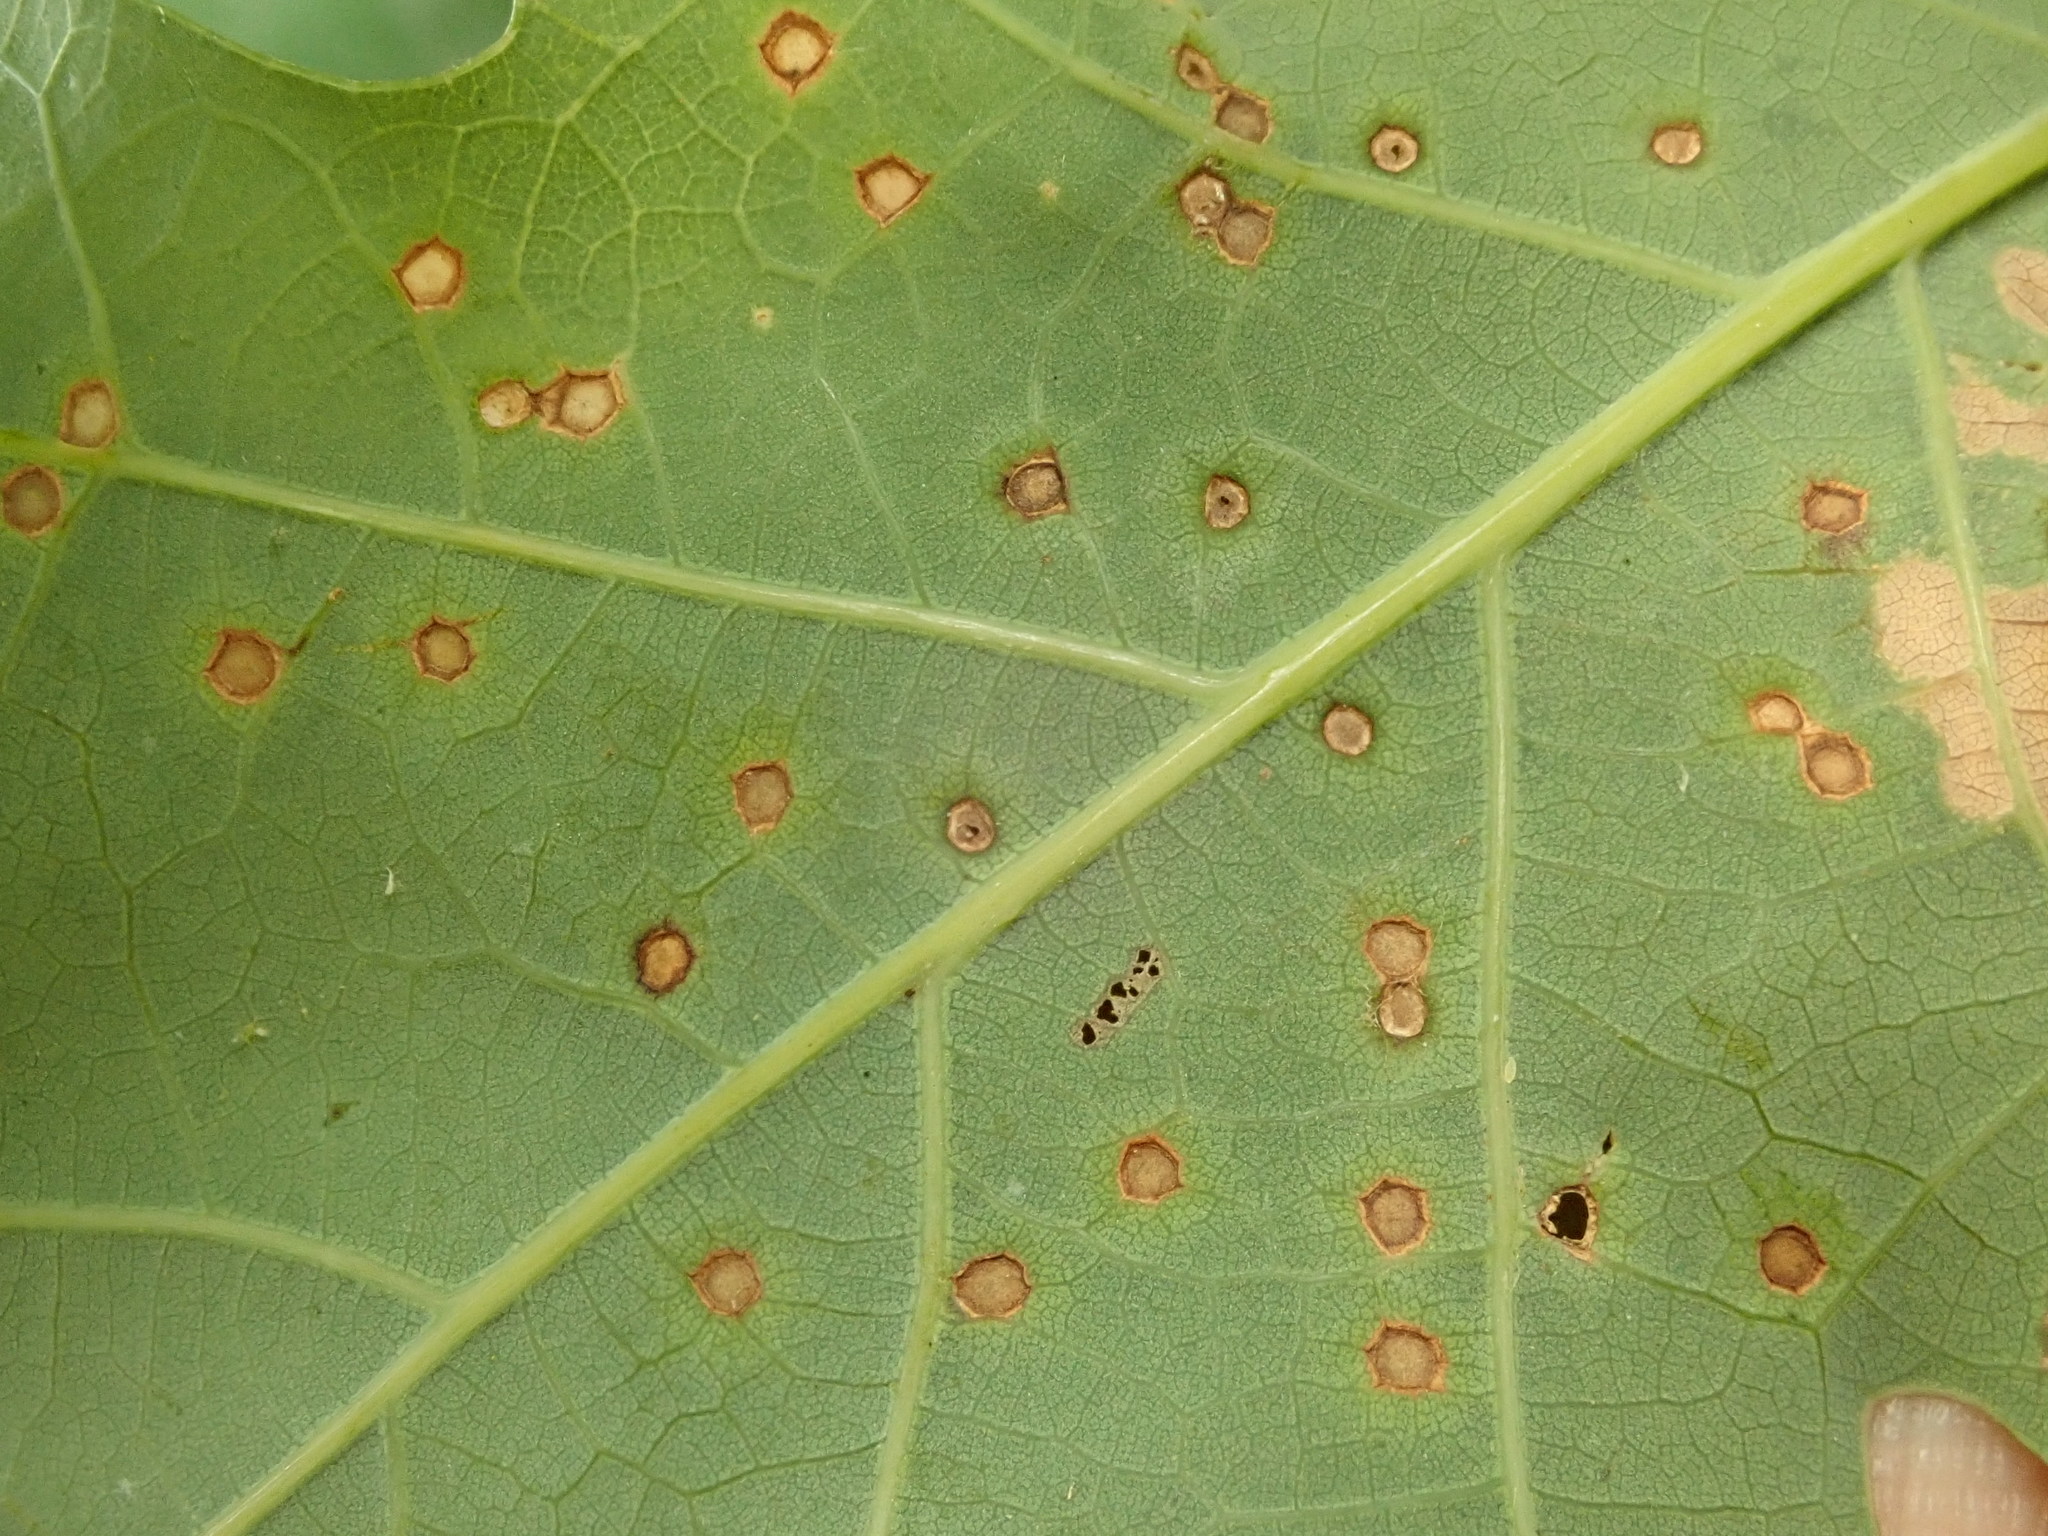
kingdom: Animalia
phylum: Arthropoda
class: Insecta
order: Hymenoptera
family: Cynipidae
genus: Neuroterus
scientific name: Neuroterus
